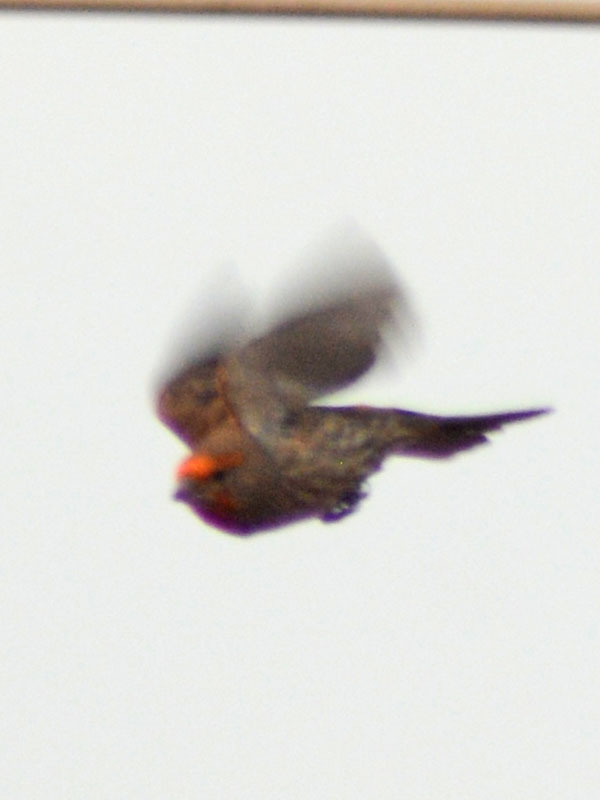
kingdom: Animalia
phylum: Chordata
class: Aves
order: Passeriformes
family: Fringillidae
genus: Haemorhous
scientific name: Haemorhous mexicanus
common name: House finch
